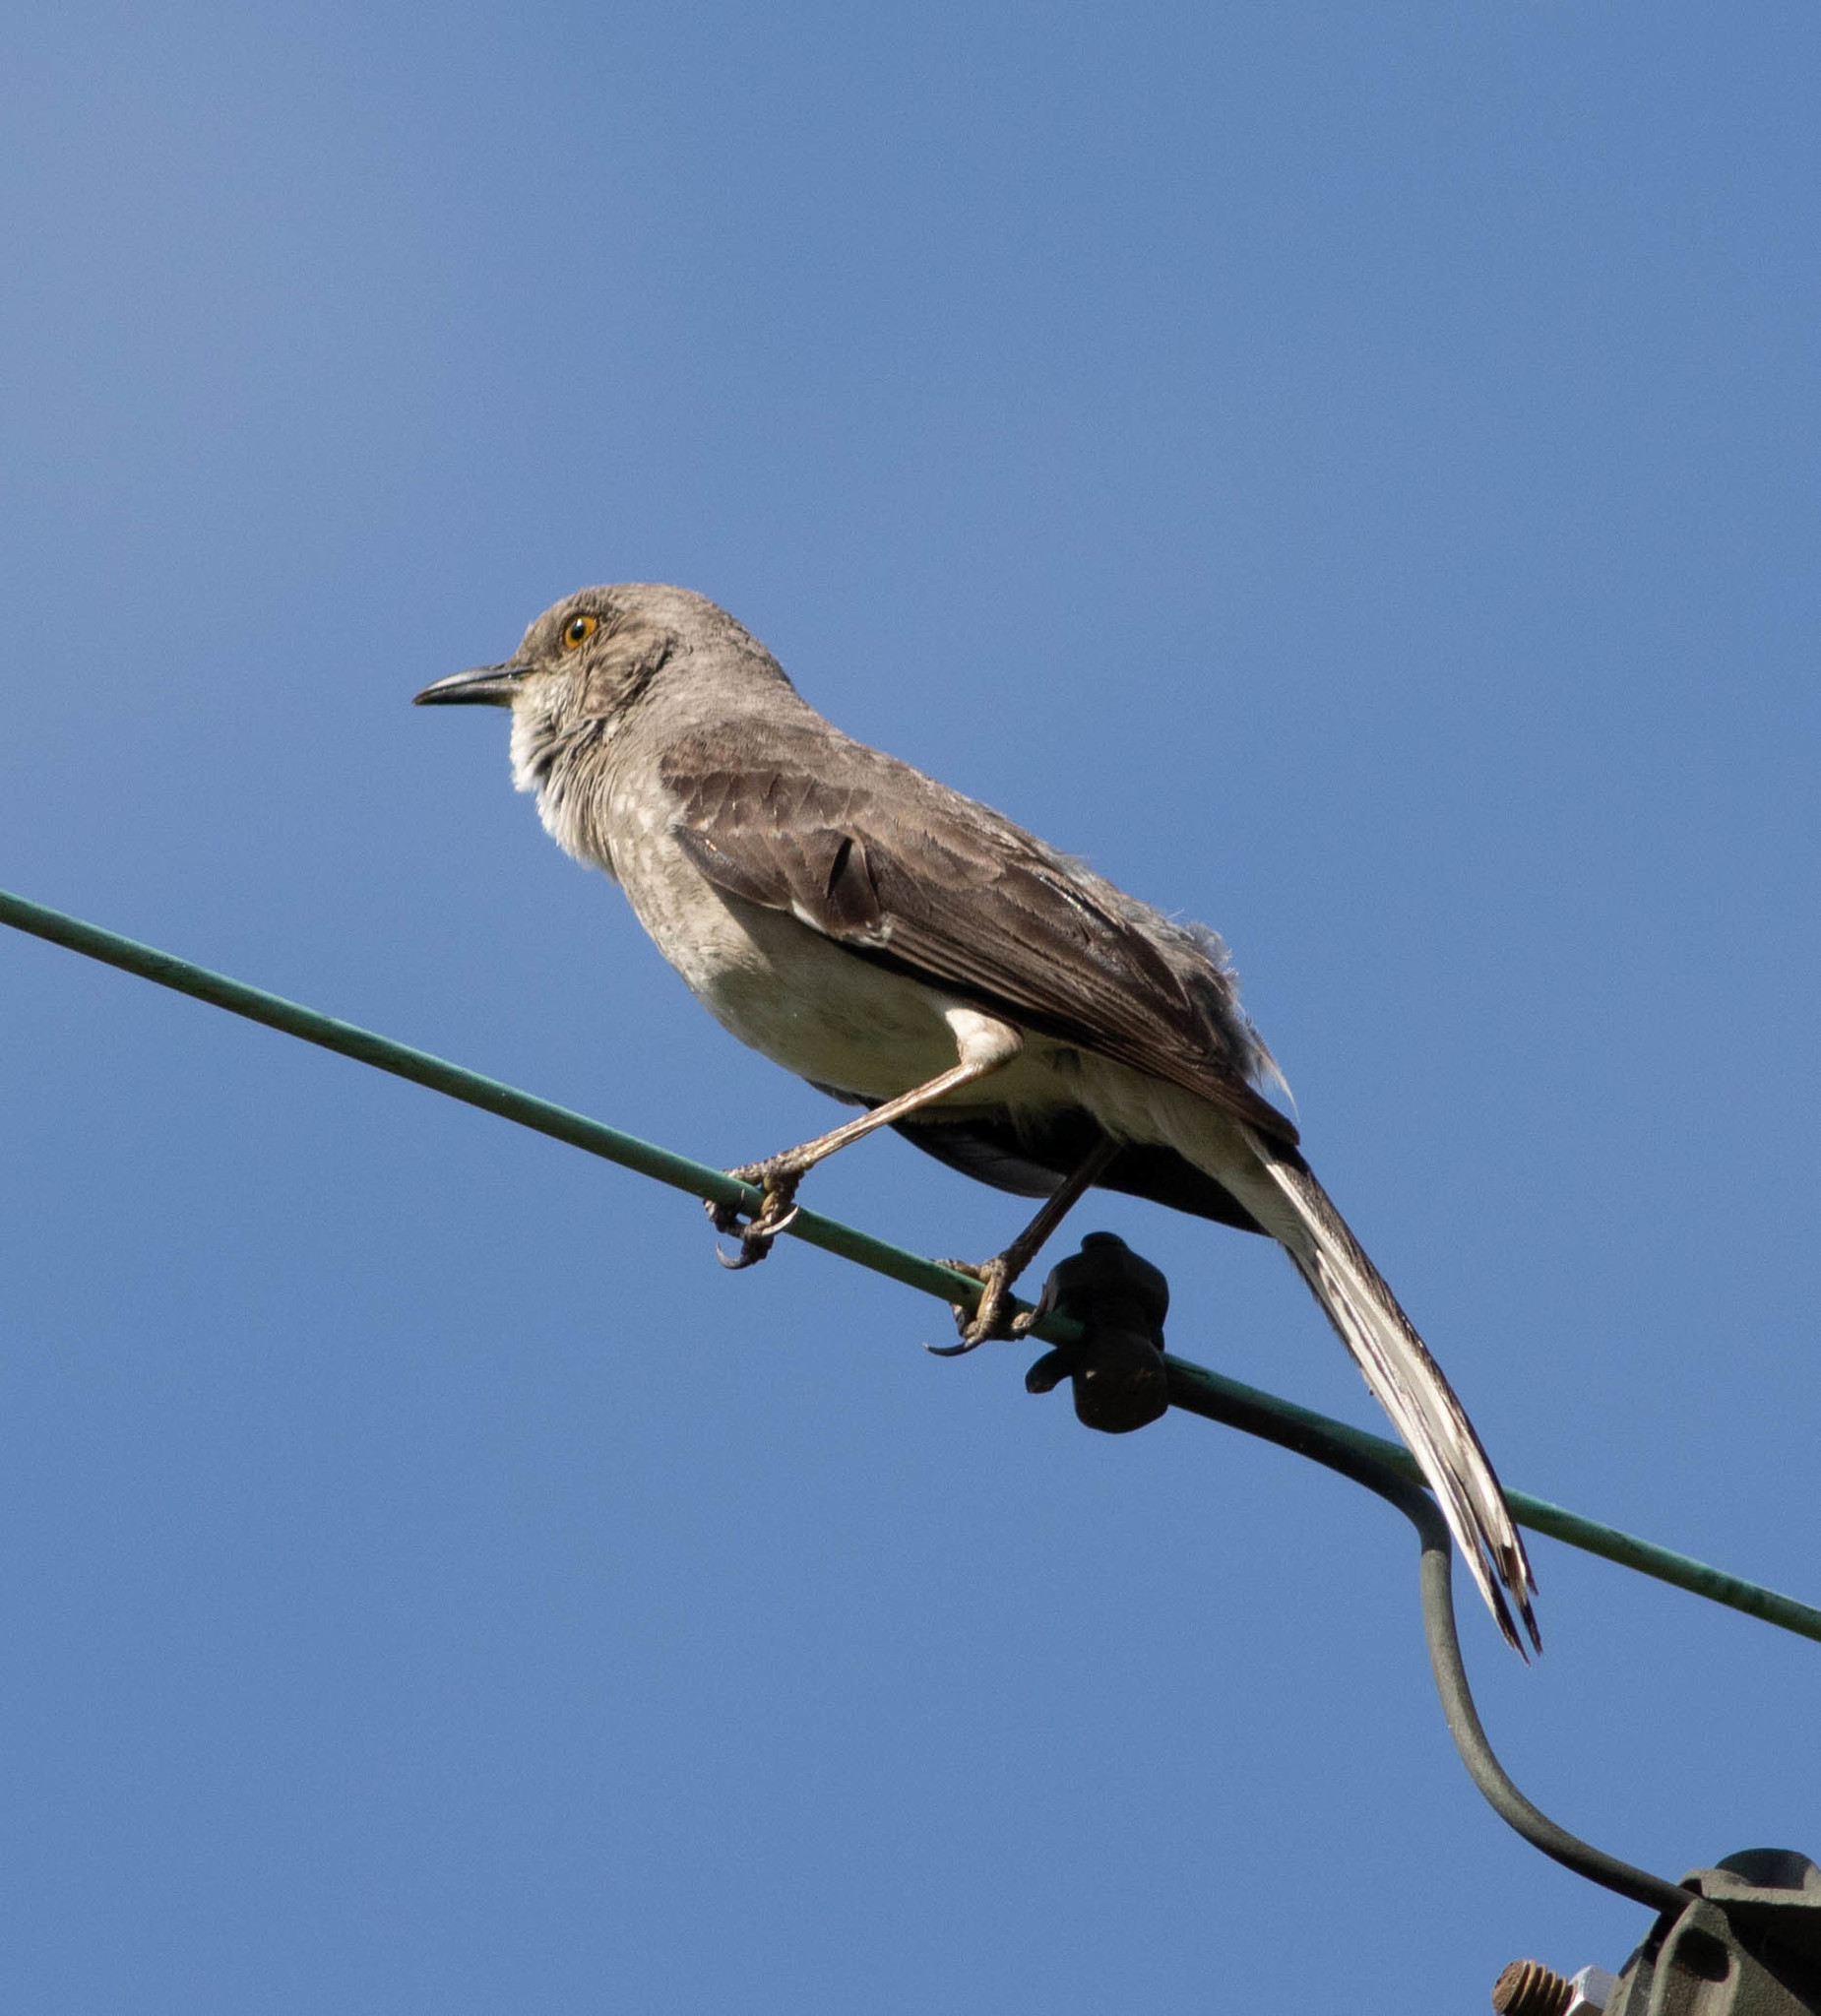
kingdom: Animalia
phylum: Chordata
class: Aves
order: Passeriformes
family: Mimidae
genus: Mimus
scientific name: Mimus polyglottos
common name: Northern mockingbird
